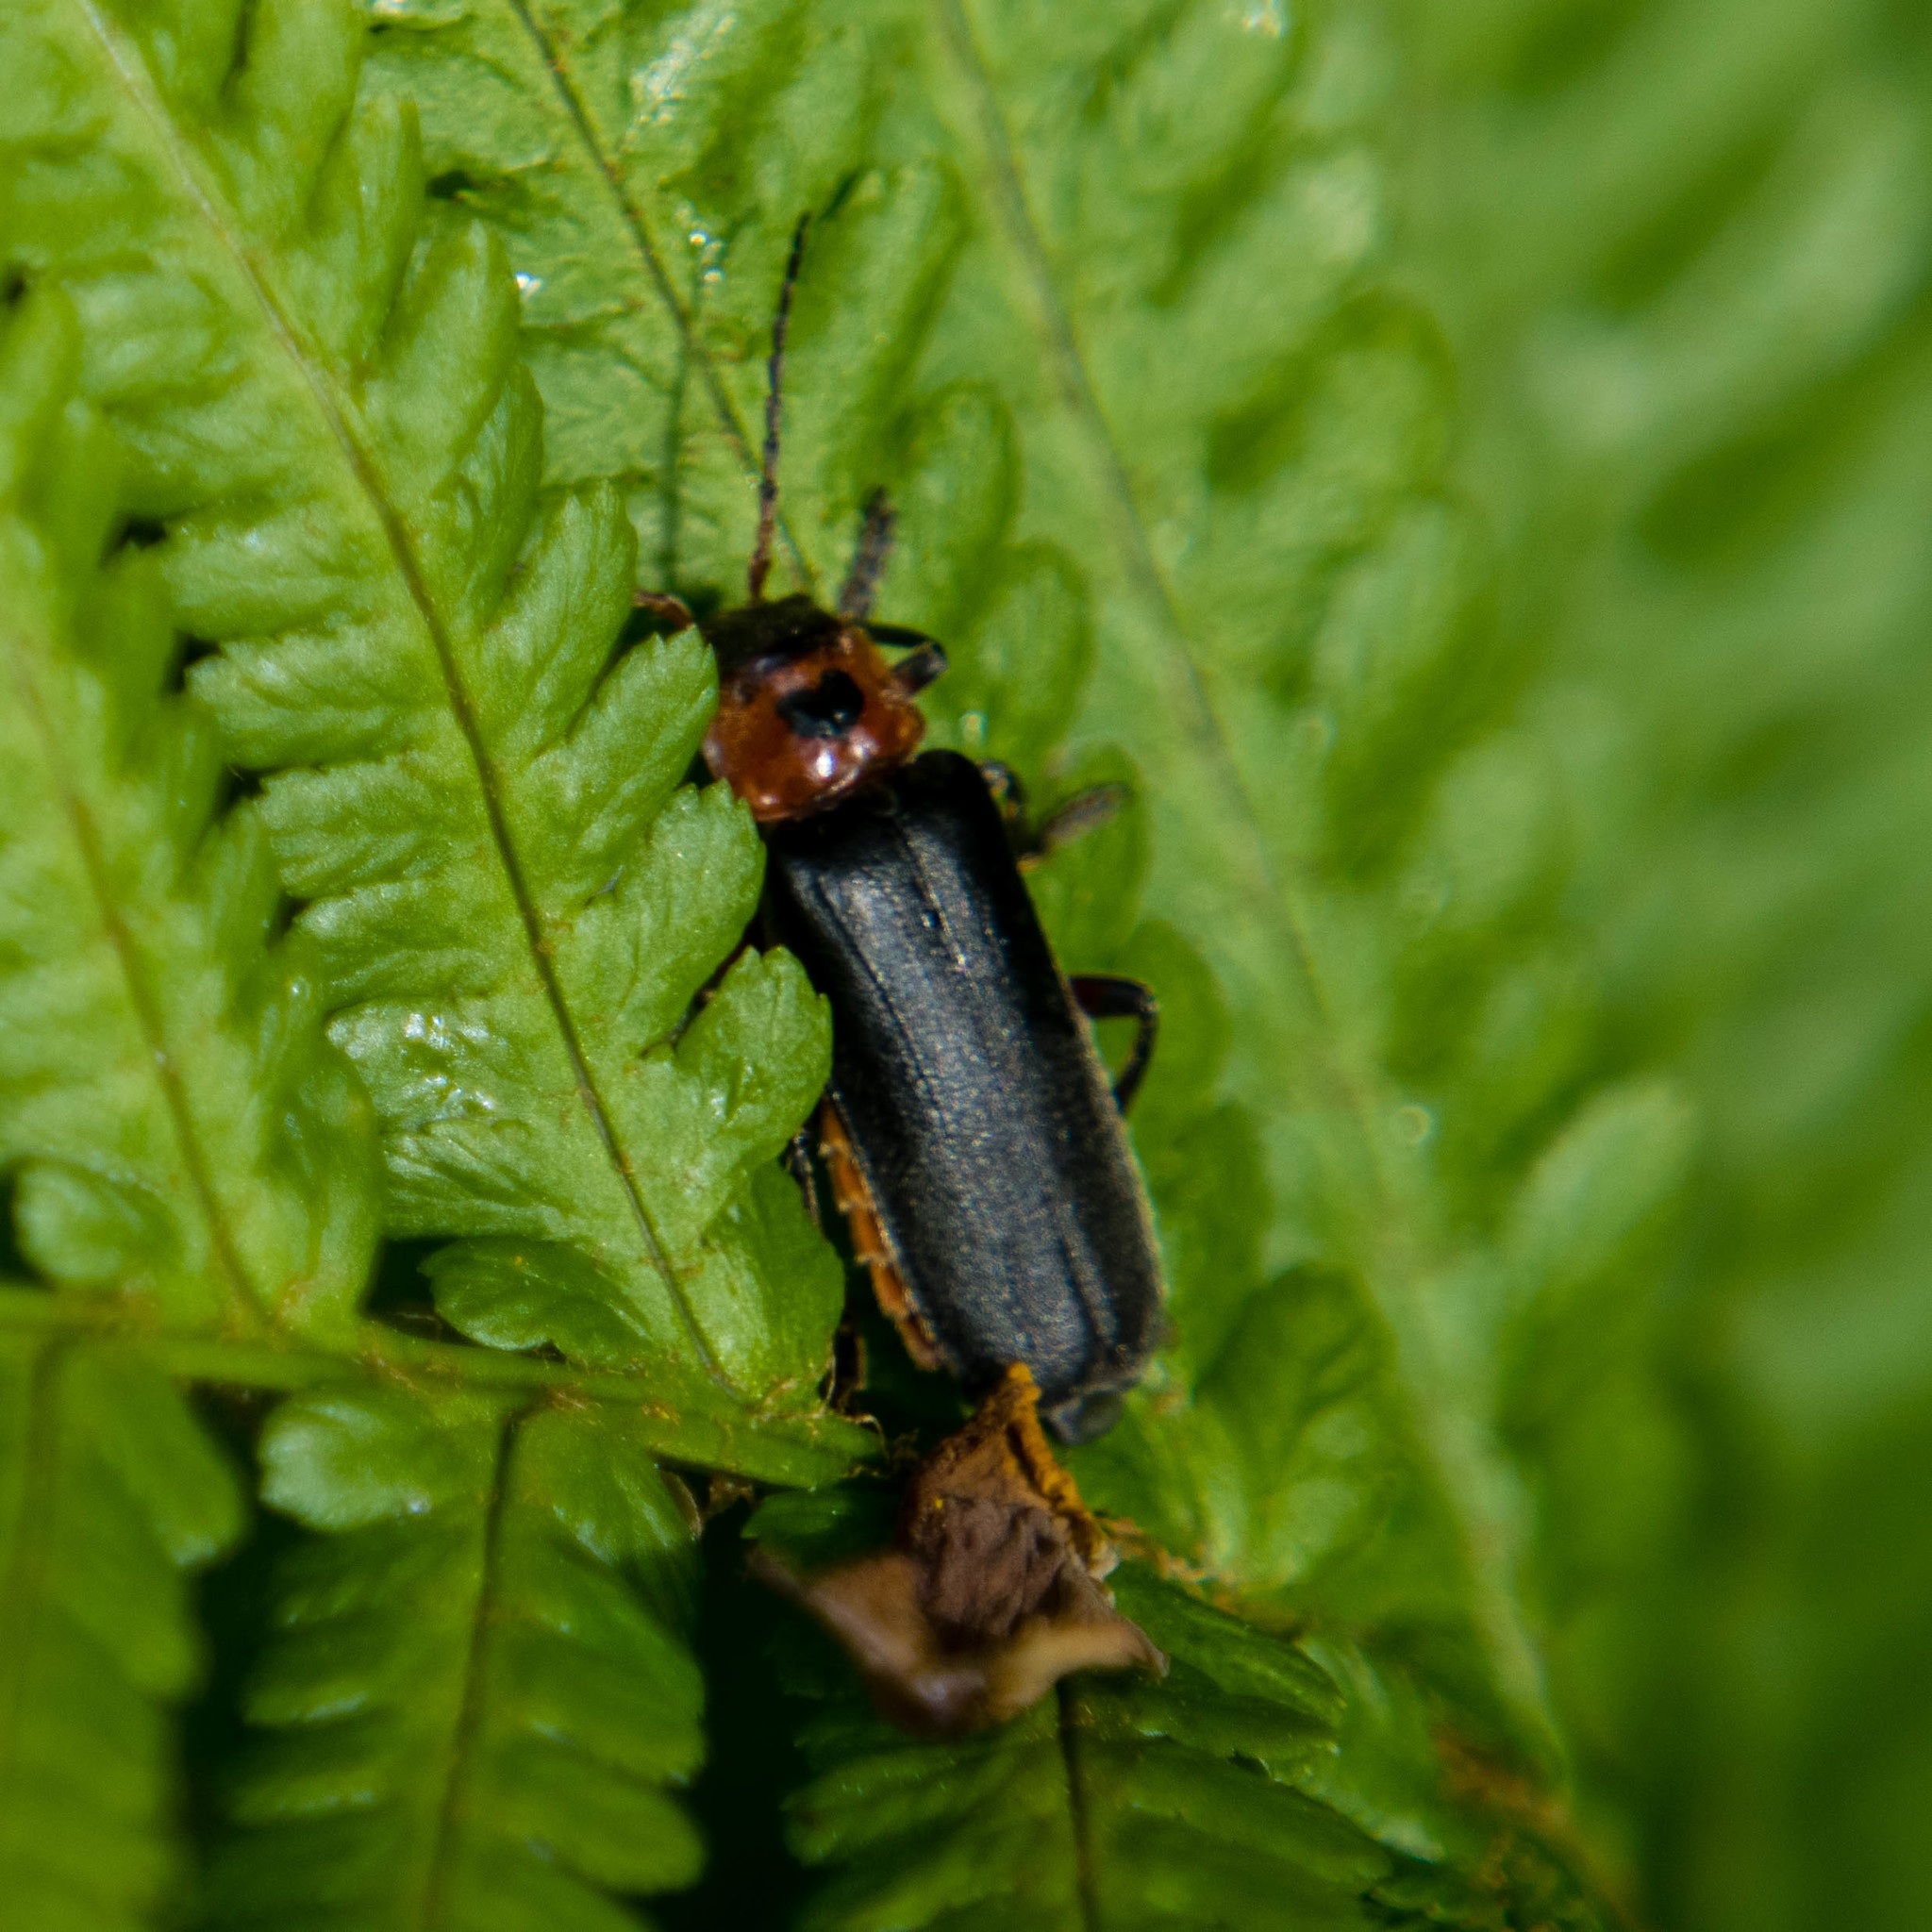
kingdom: Animalia
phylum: Arthropoda
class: Insecta
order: Coleoptera
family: Cantharidae
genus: Cantharis
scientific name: Cantharis rustica
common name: Soldier beetle
